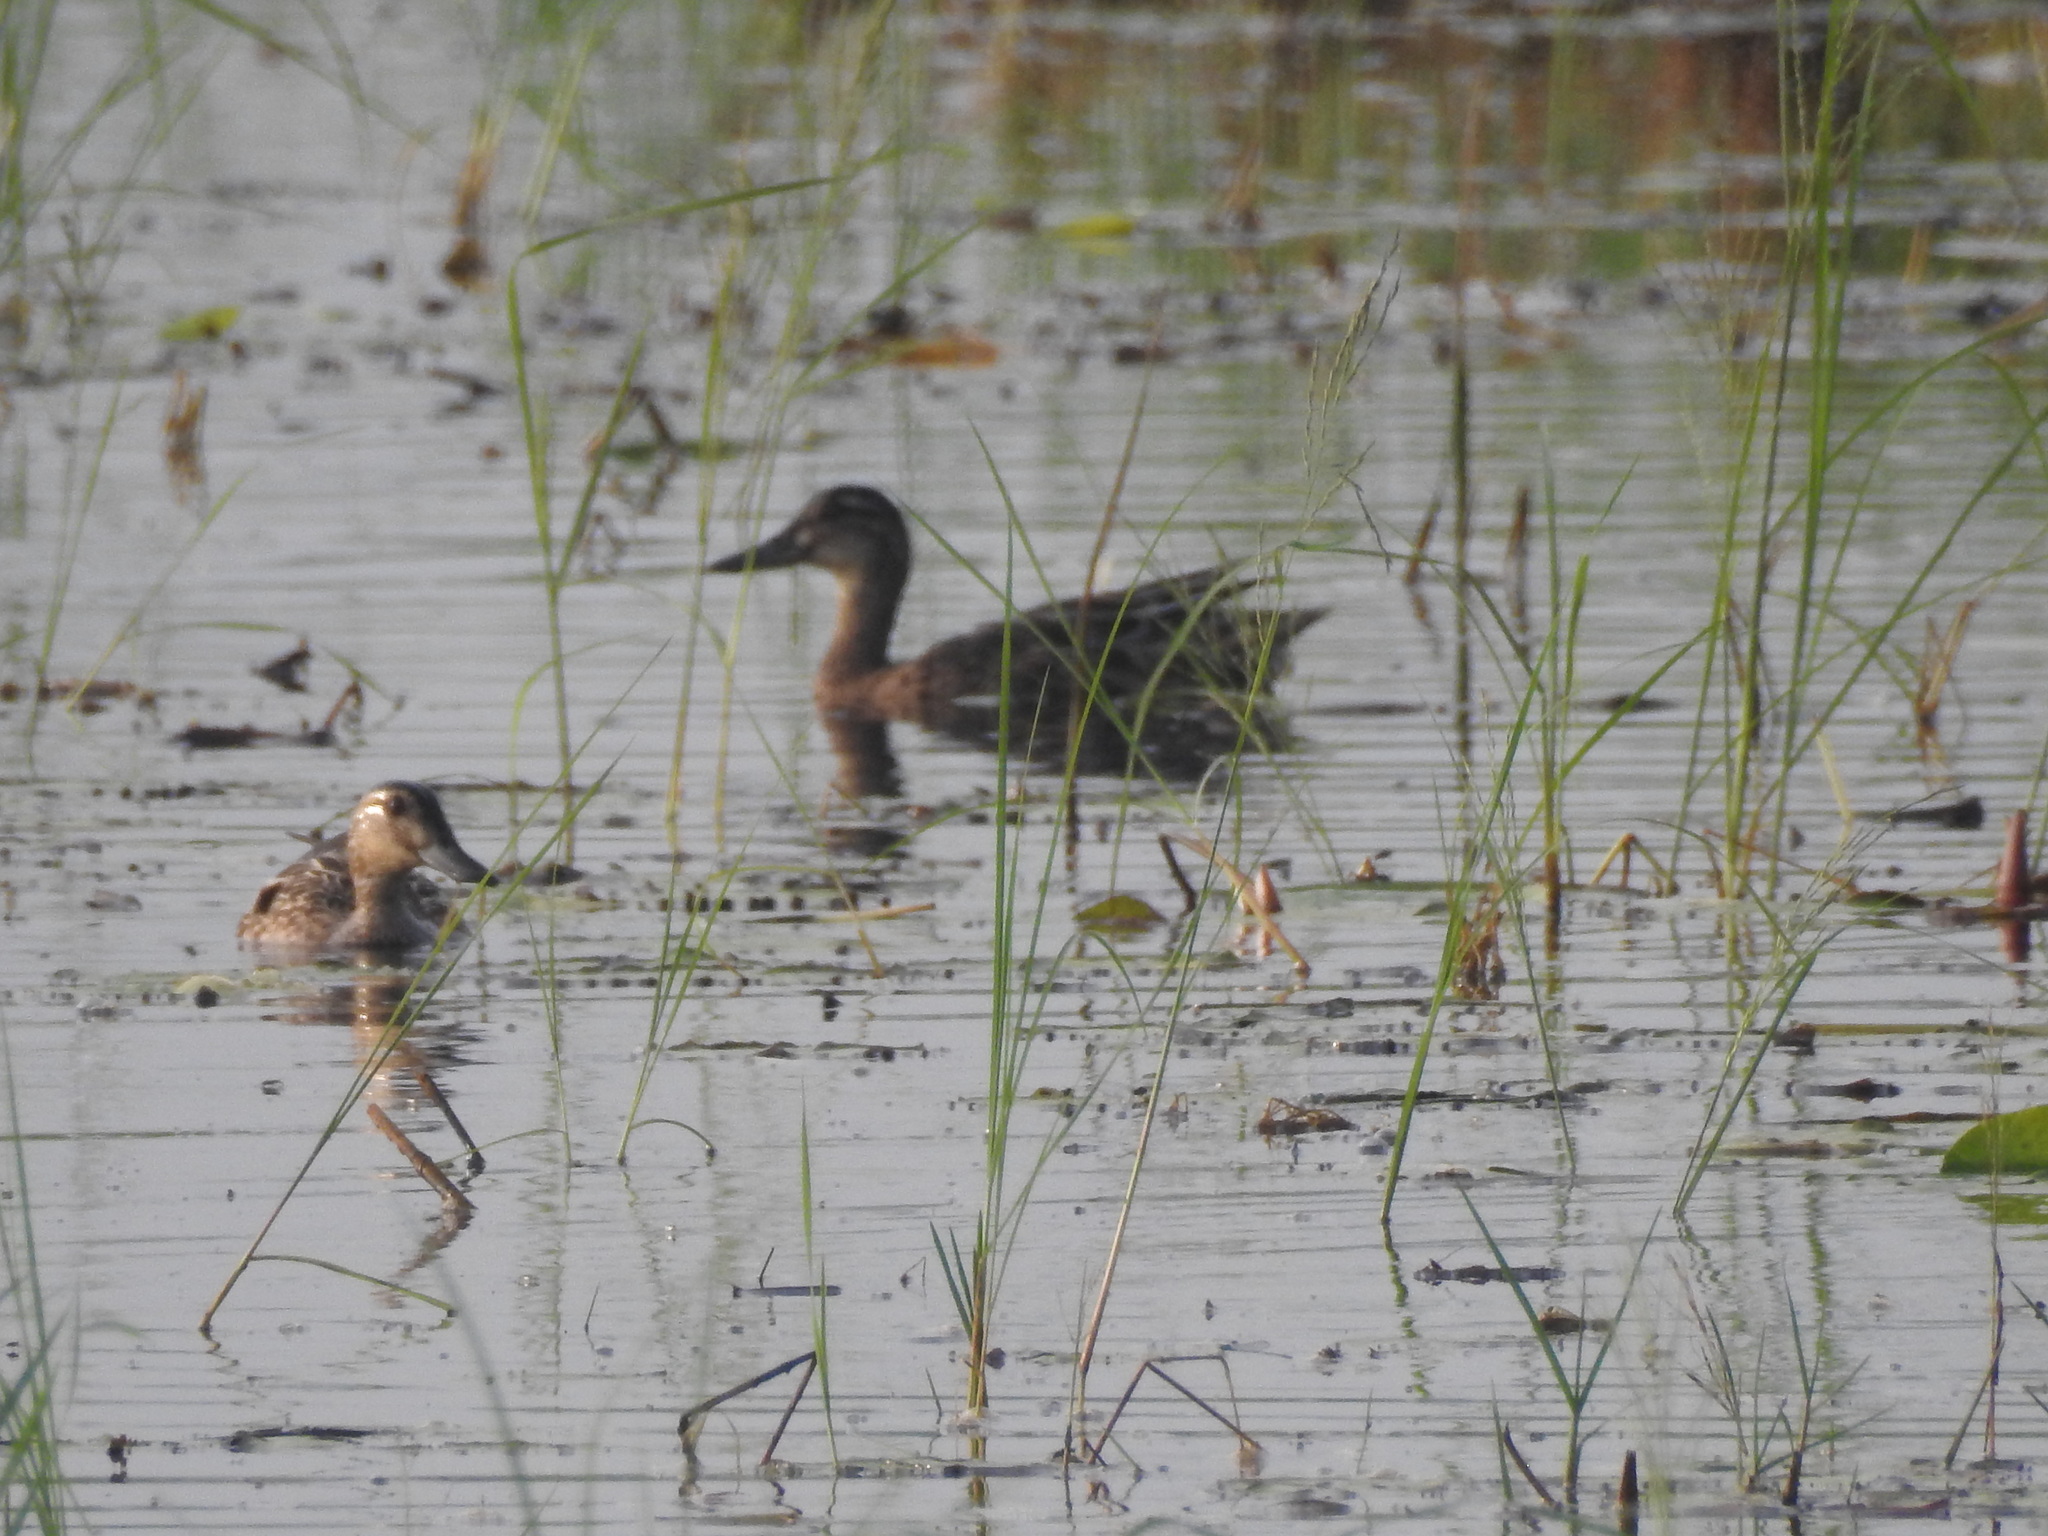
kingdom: Animalia
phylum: Chordata
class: Aves
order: Anseriformes
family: Anatidae
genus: Spatula
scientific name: Spatula querquedula
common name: Garganey
